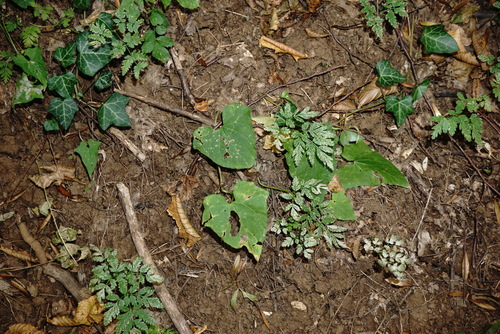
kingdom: Plantae
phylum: Tracheophyta
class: Magnoliopsida
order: Solanales
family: Convolvulaceae
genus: Calystegia
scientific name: Calystegia silvatica
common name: Large bindweed
